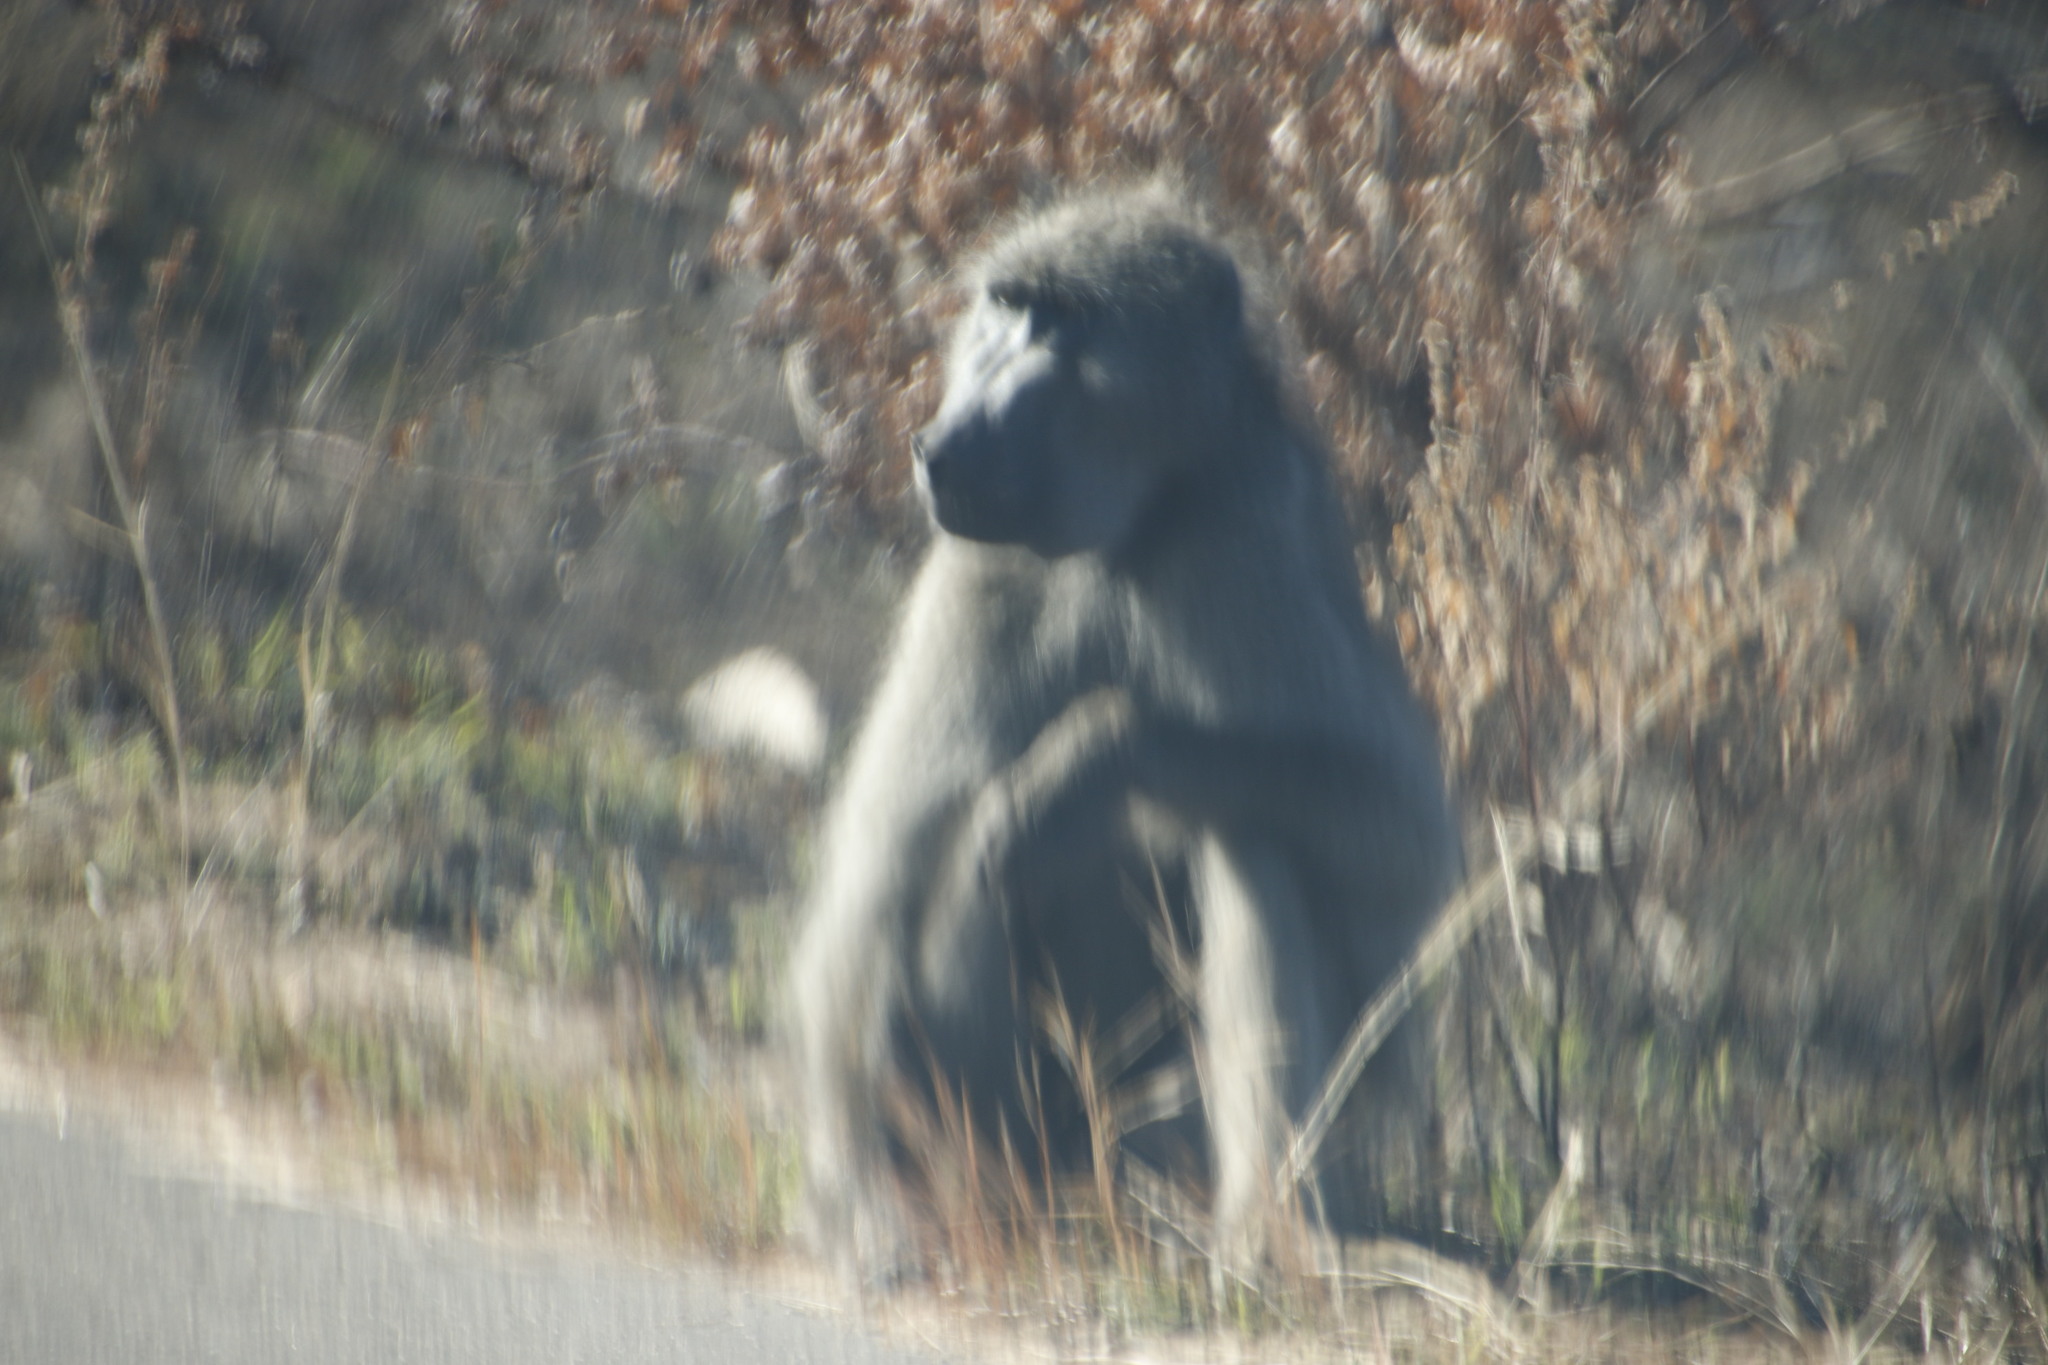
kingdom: Animalia
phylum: Chordata
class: Mammalia
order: Primates
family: Cercopithecidae
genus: Papio
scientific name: Papio ursinus
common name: Chacma baboon
